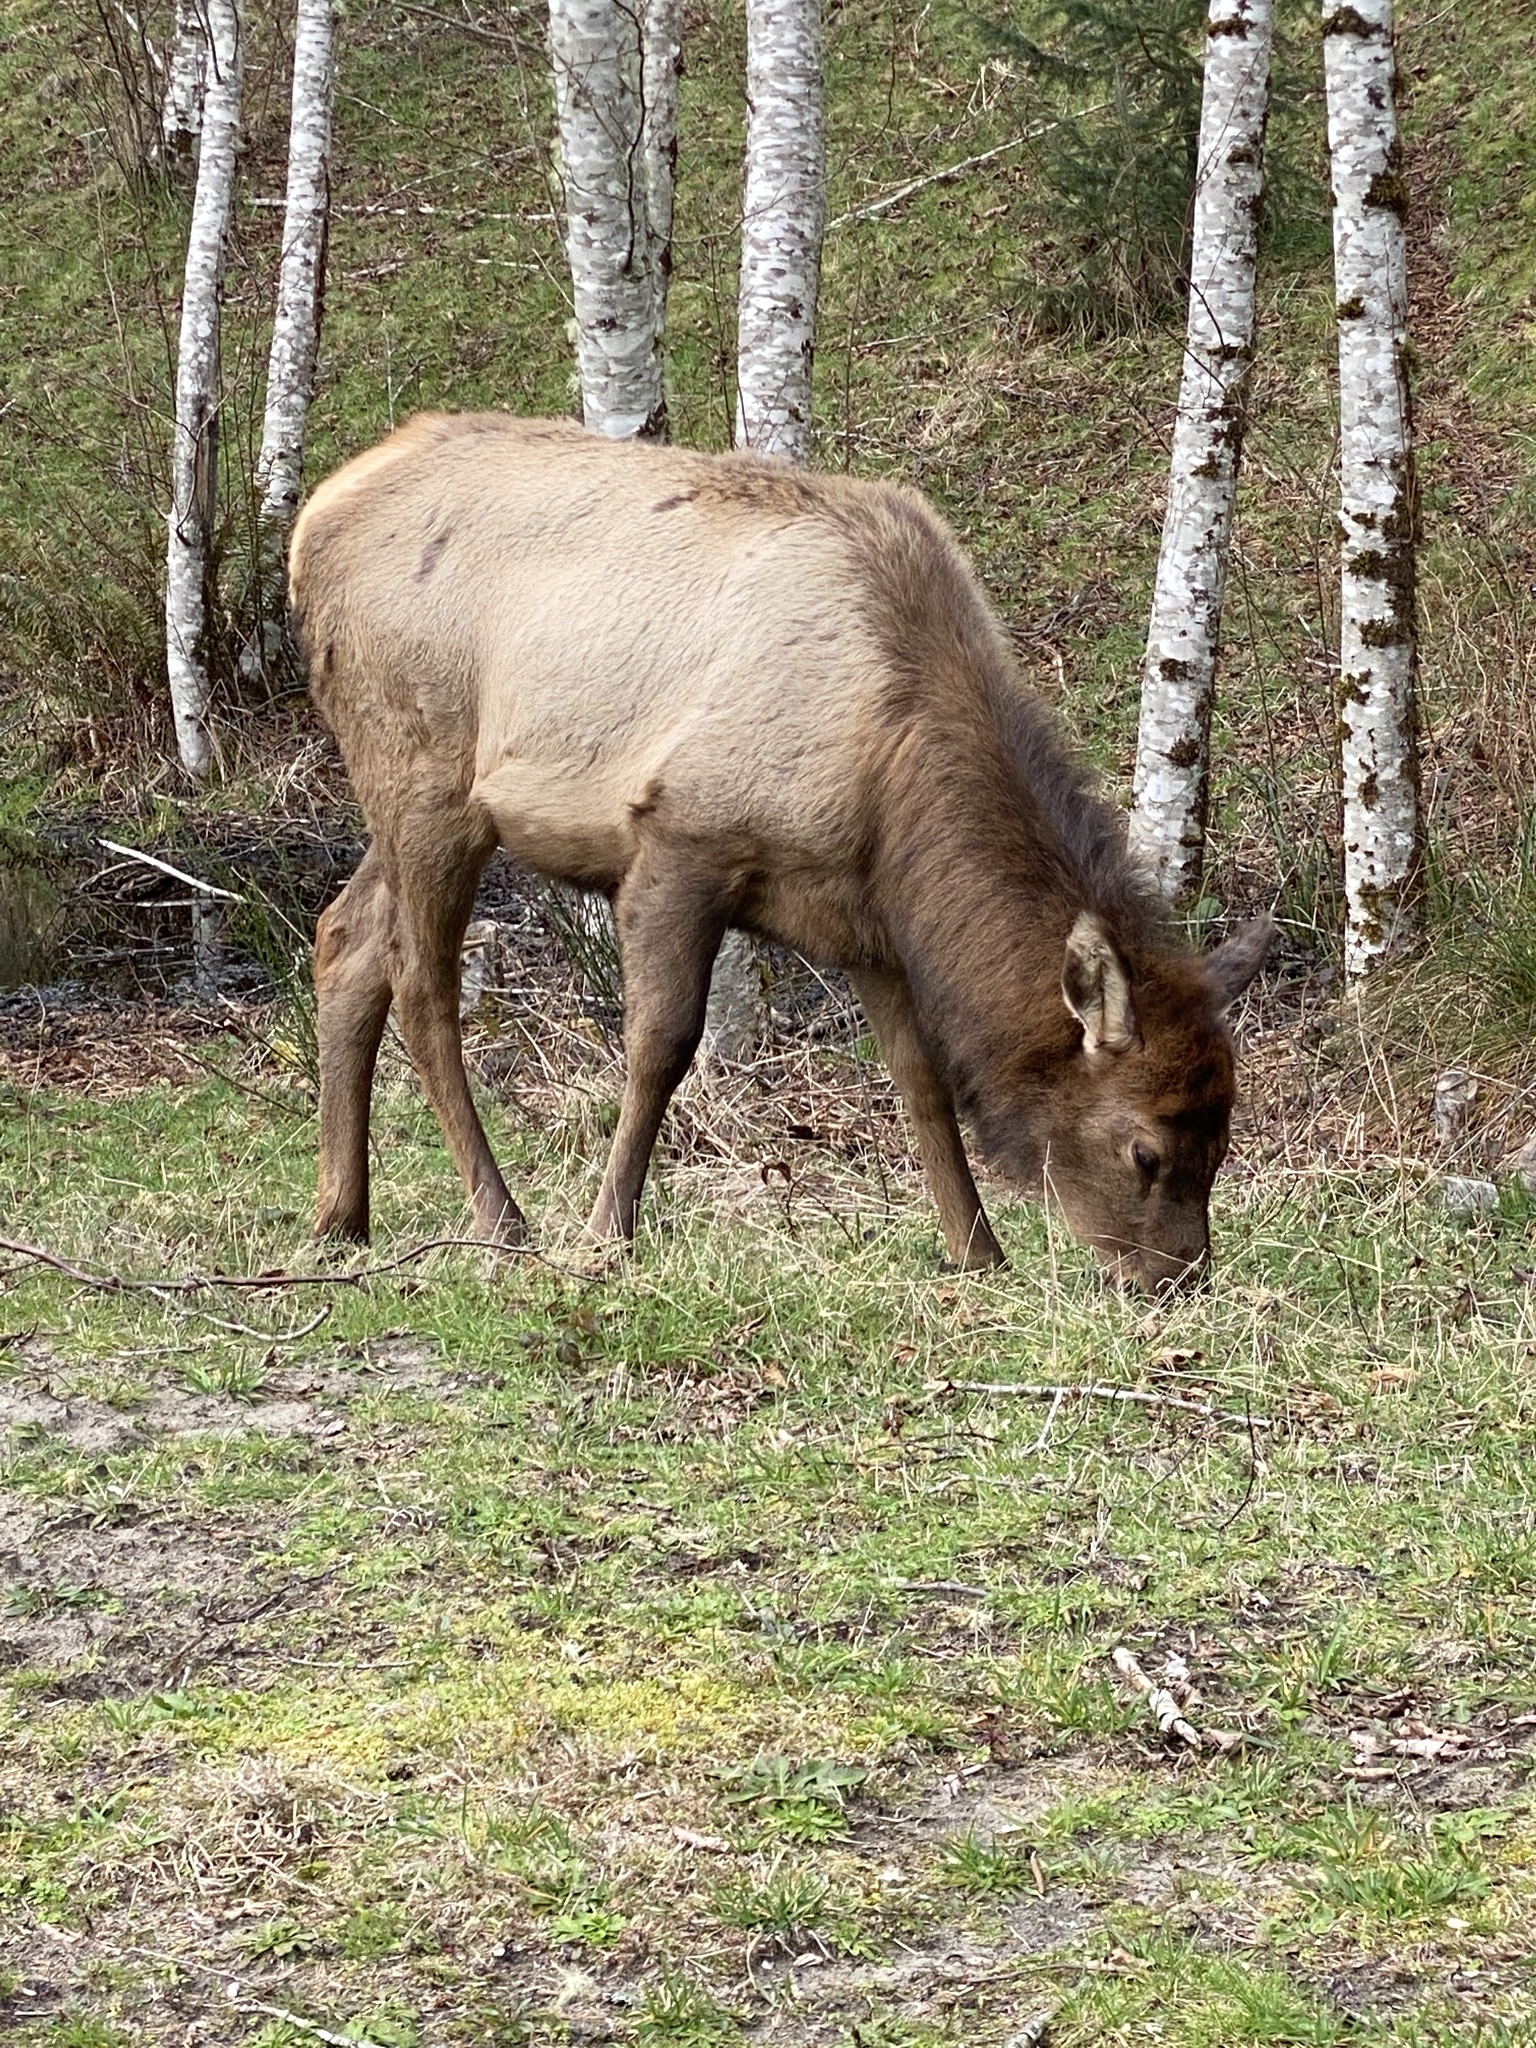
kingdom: Animalia
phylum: Chordata
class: Mammalia
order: Artiodactyla
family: Cervidae
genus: Cervus
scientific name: Cervus elaphus
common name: Red deer
